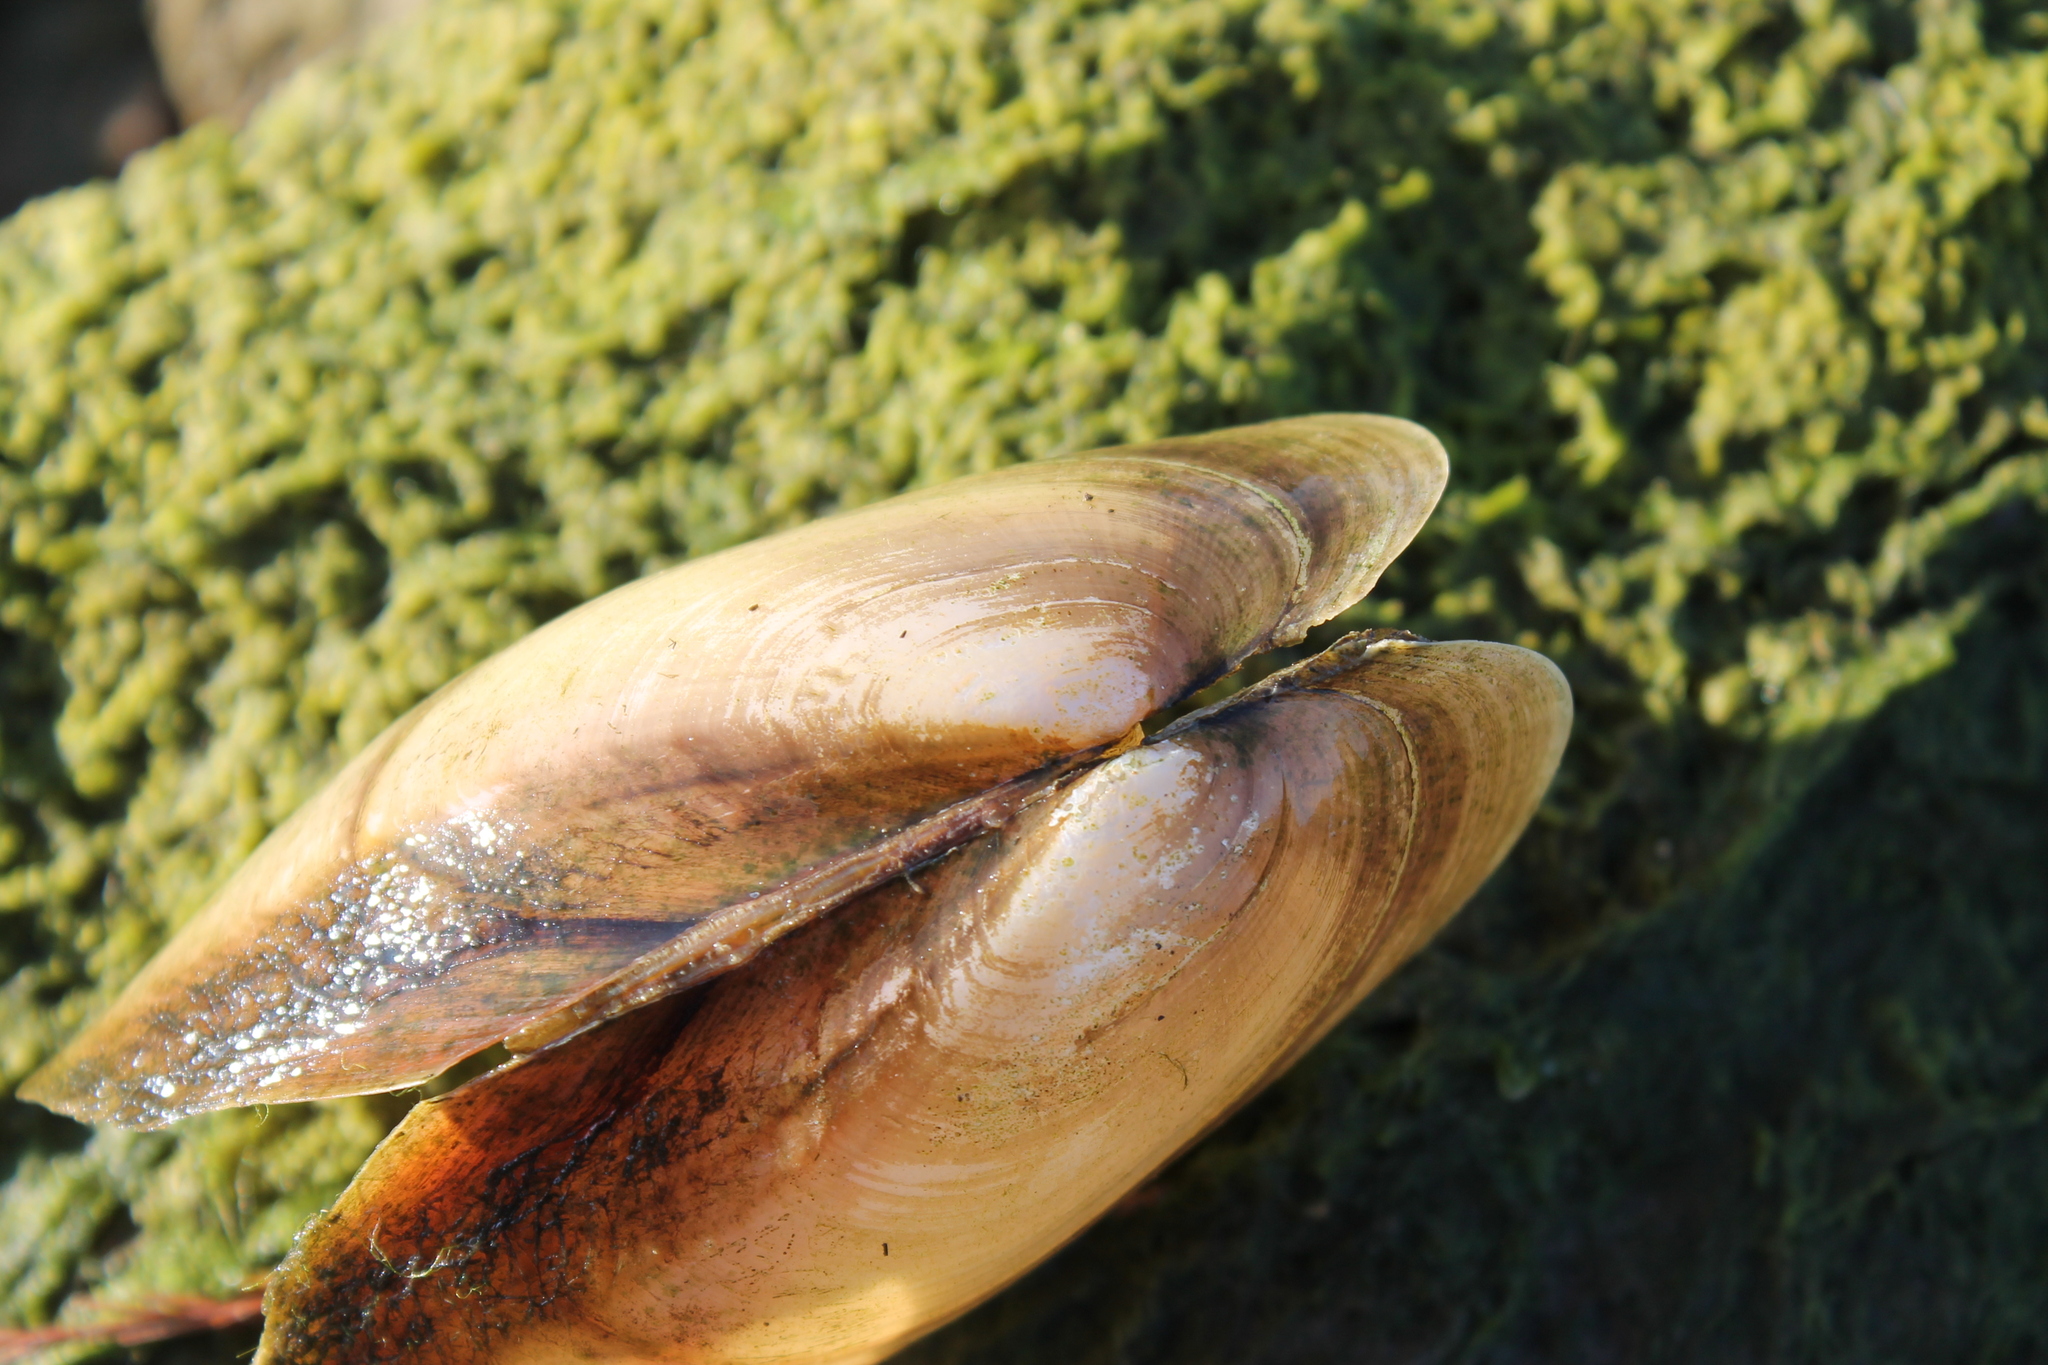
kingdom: Animalia
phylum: Mollusca
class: Bivalvia
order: Unionida
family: Unionidae
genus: Potamilus
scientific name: Potamilus fragilis
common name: Fragile papershell
